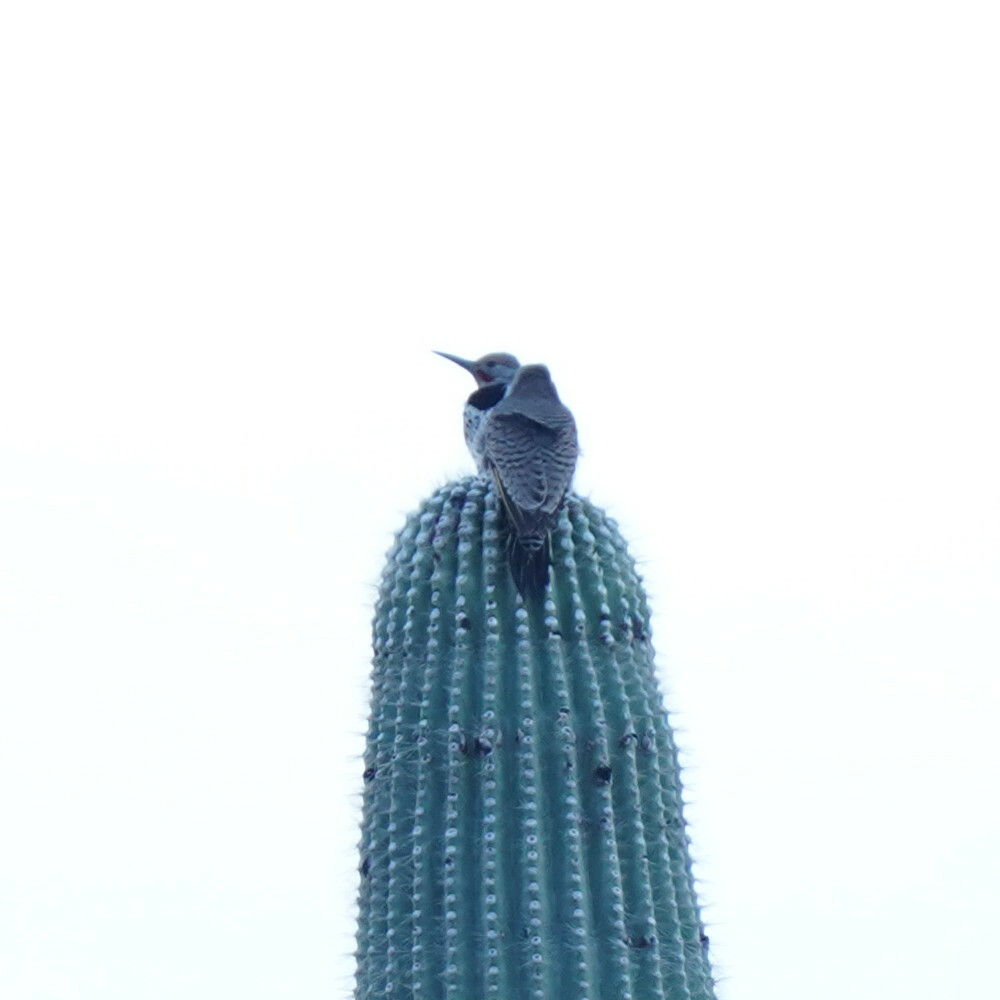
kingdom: Animalia
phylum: Chordata
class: Aves
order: Piciformes
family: Picidae
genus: Colaptes
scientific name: Colaptes chrysoides
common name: Gilded flicker
